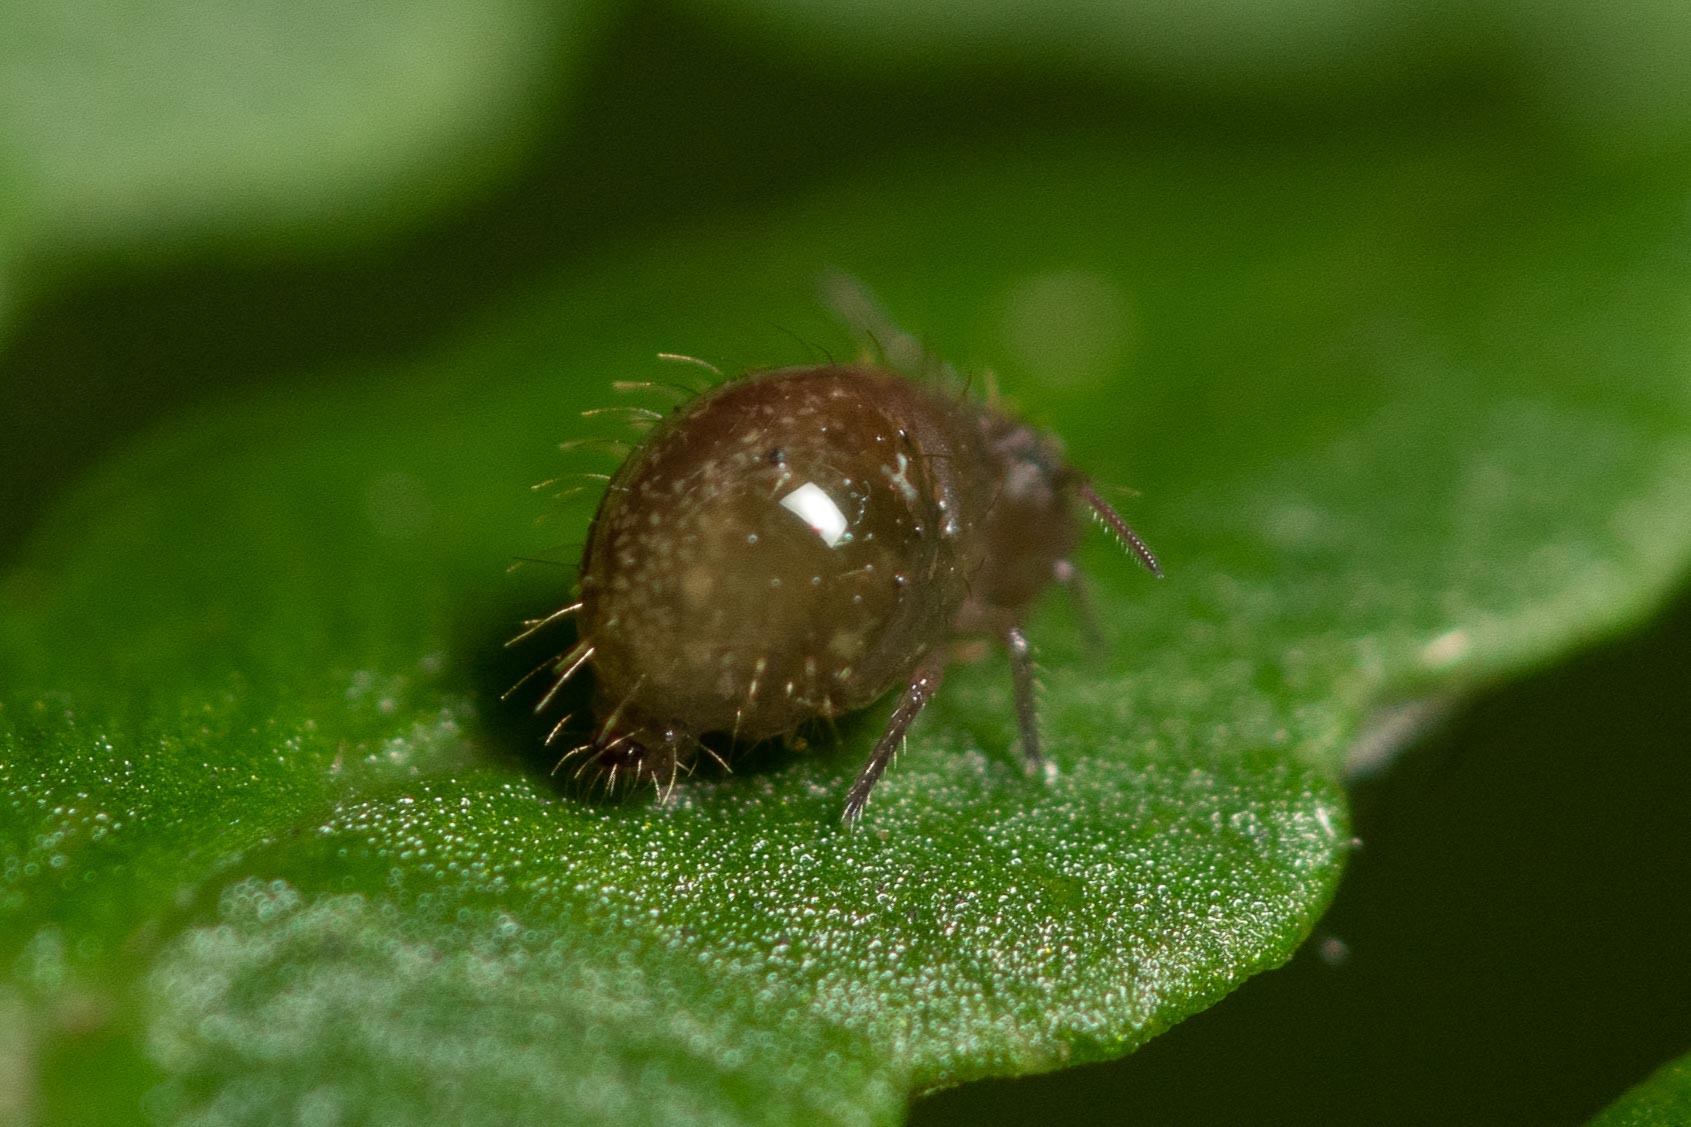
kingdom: Animalia
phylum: Arthropoda
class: Collembola
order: Symphypleona
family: Sminthuridae
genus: Allacma
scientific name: Allacma fusca
